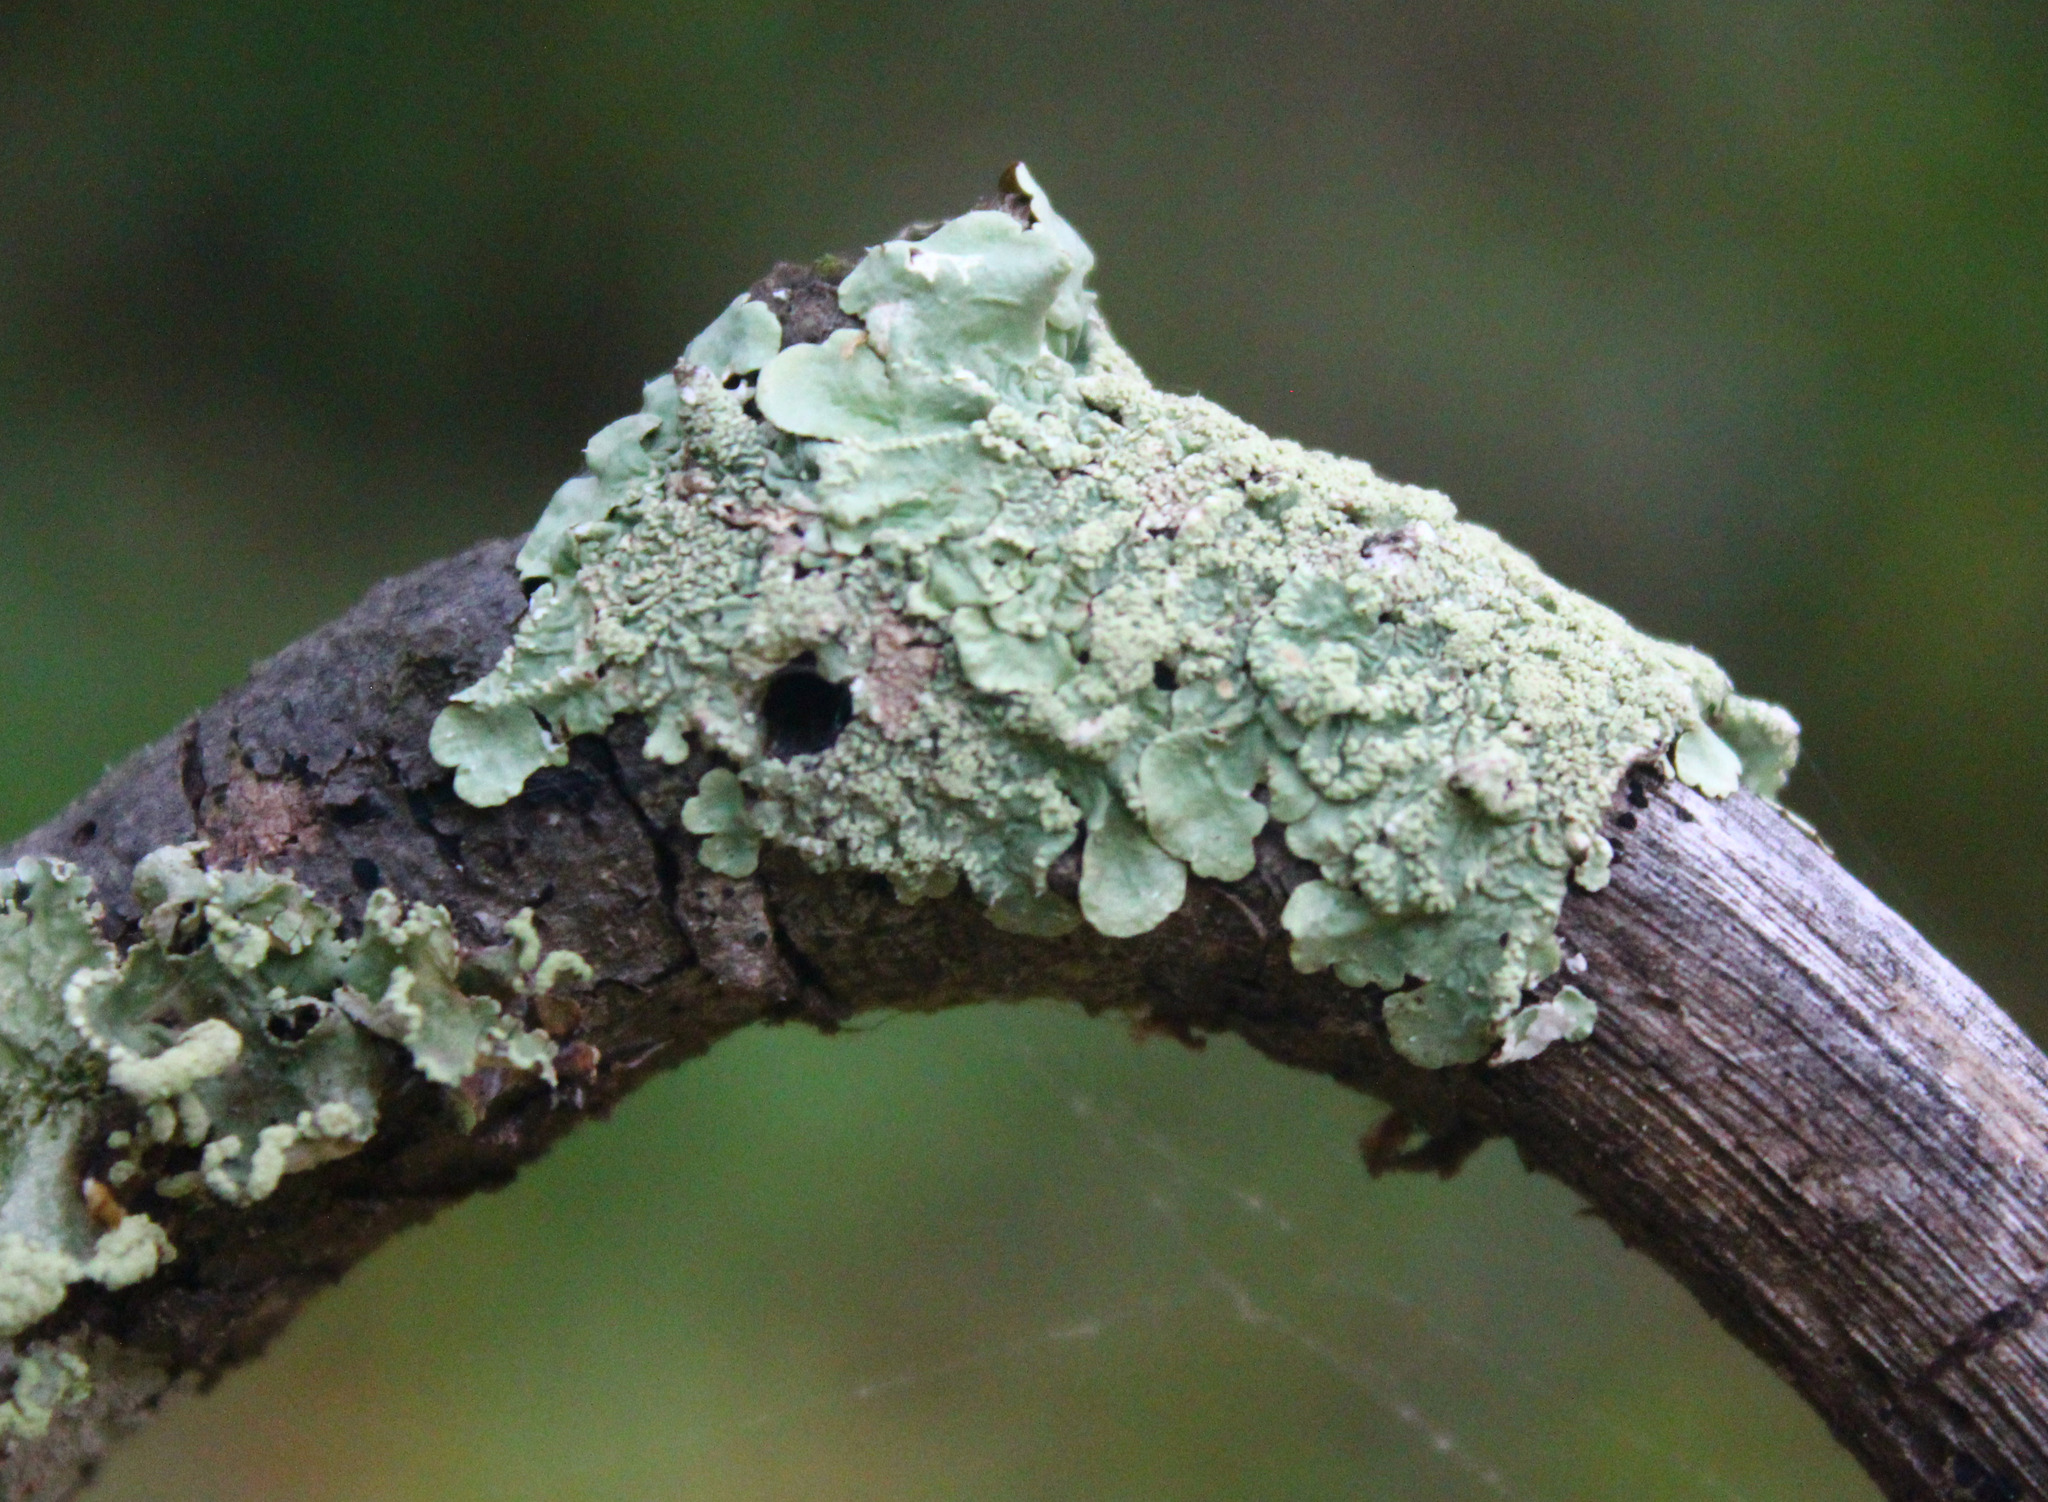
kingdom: Fungi
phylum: Ascomycota
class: Lecanoromycetes
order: Lecanorales
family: Parmeliaceae
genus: Flavoparmelia
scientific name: Flavoparmelia caperata
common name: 40-mile per hour lichen
